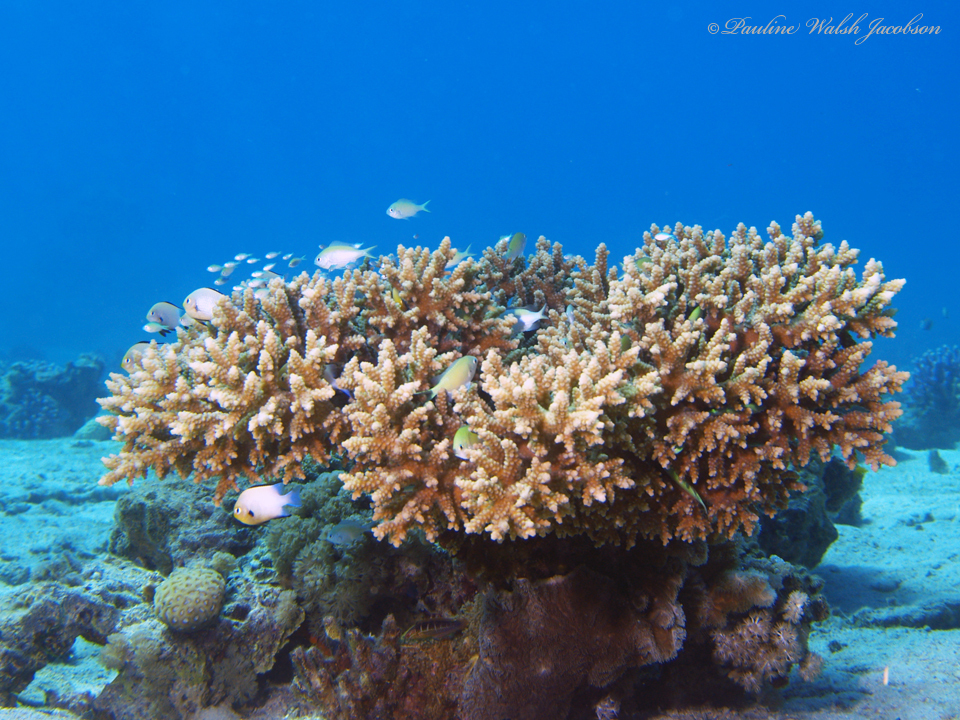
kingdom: Animalia
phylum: Chordata
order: Perciformes
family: Pomacentridae
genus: Dascyllus
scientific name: Dascyllus marginatus
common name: Red sea dascyllus
